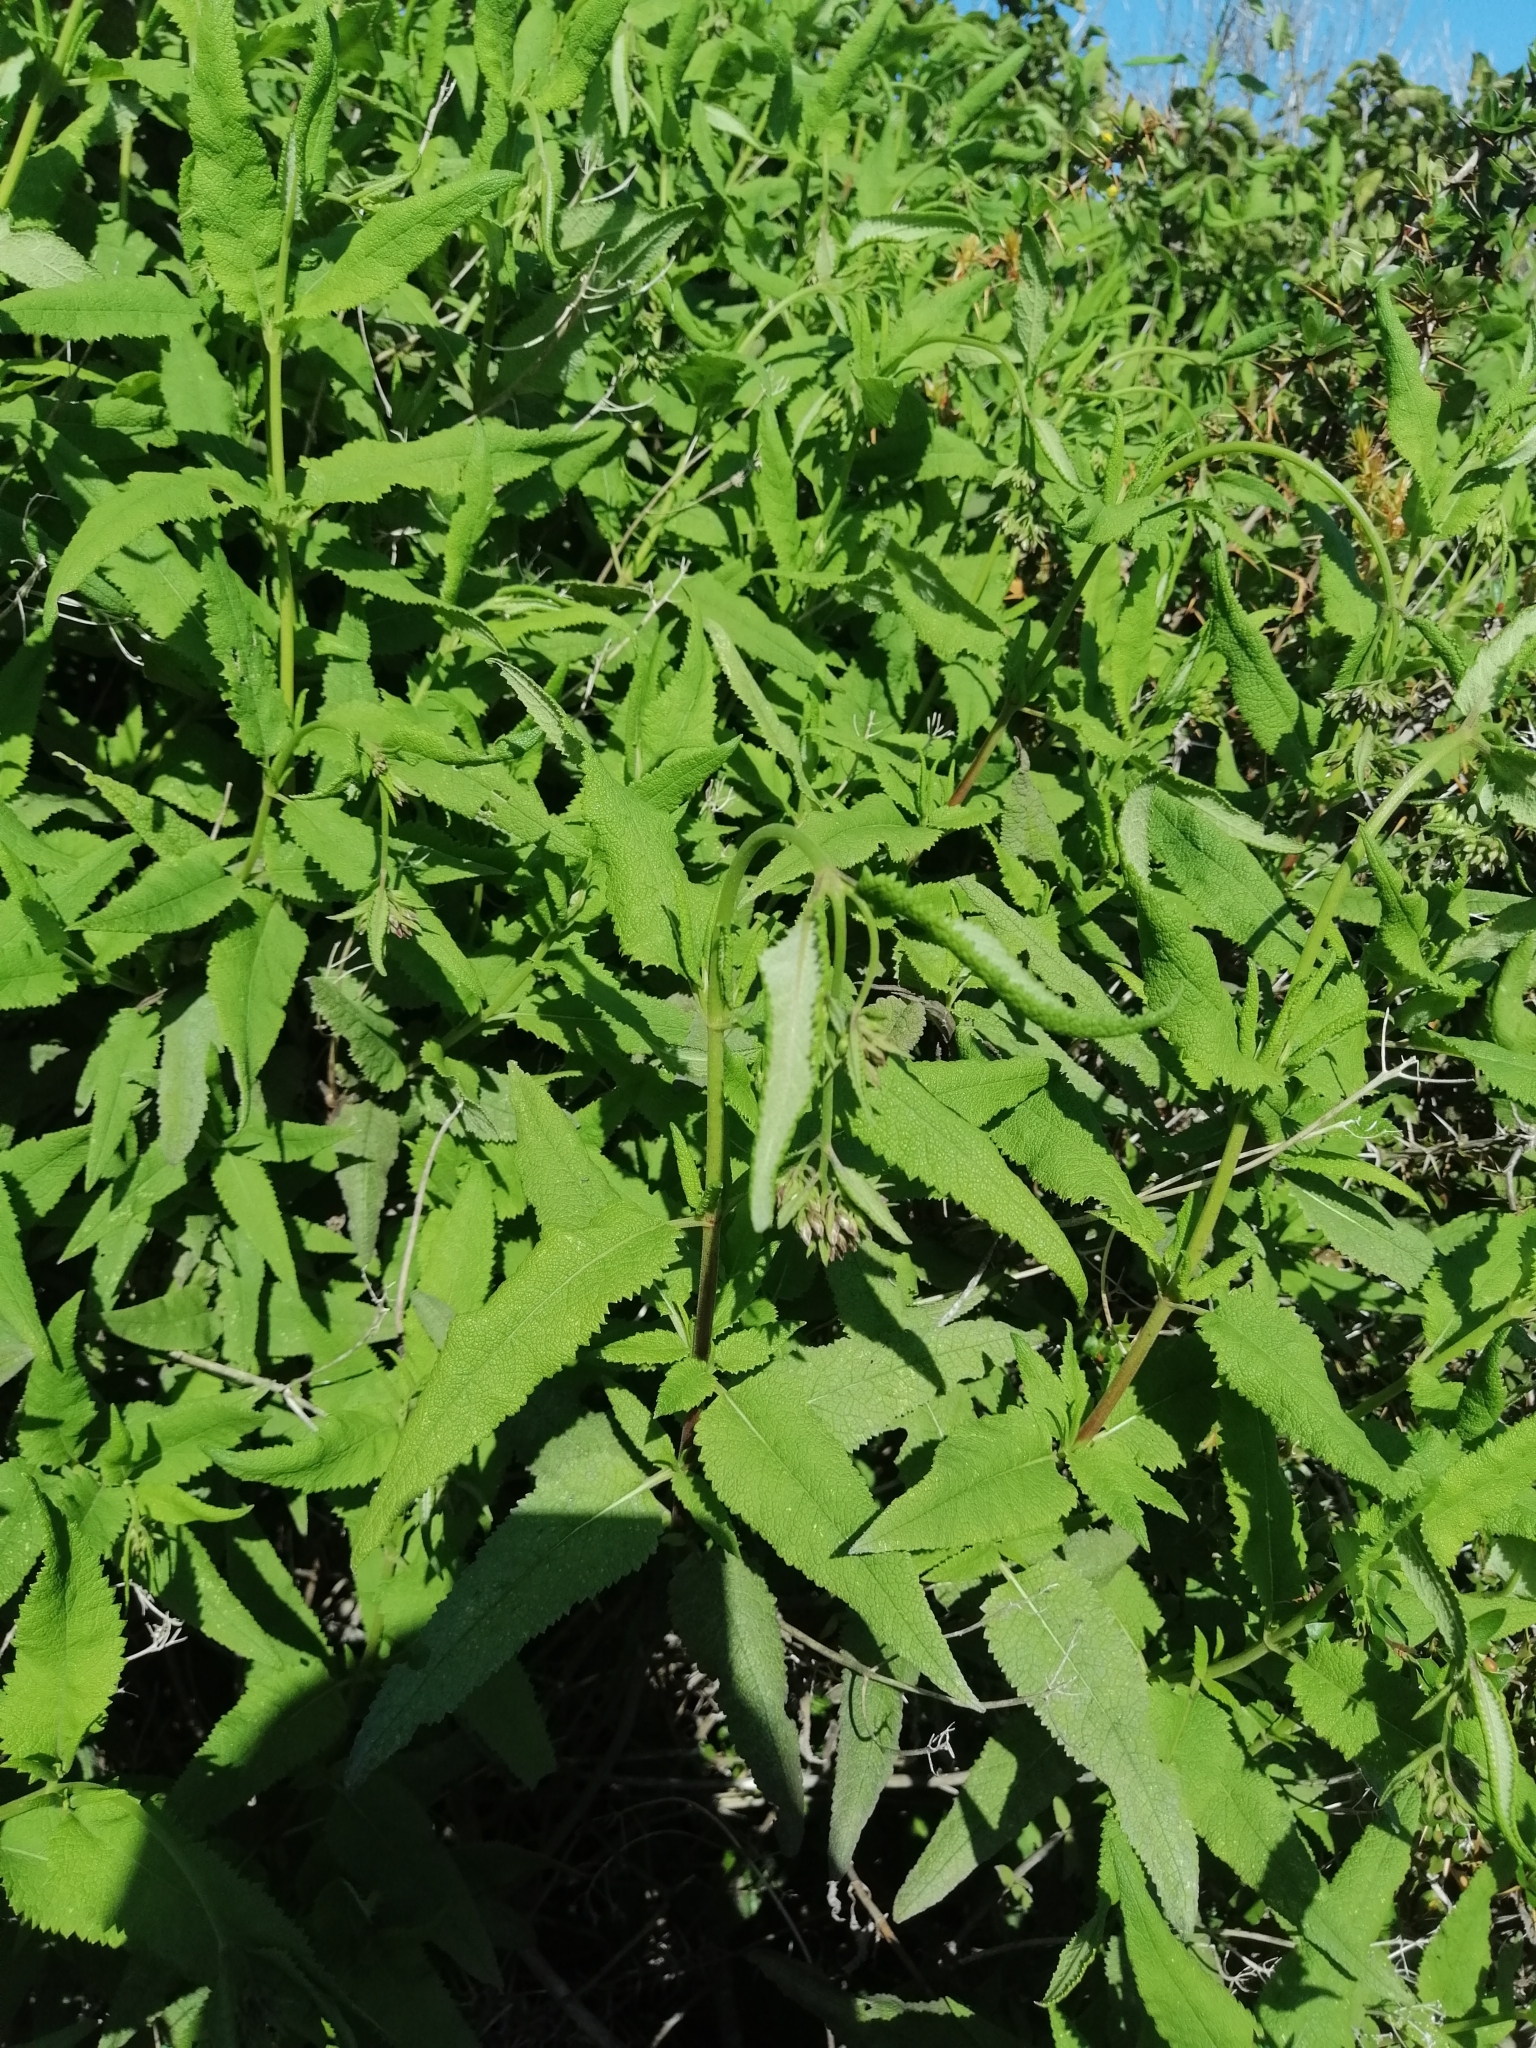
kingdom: Plantae
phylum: Tracheophyta
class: Magnoliopsida
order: Asterales
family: Asteraceae
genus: Aristeguietia
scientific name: Aristeguietia salvia
